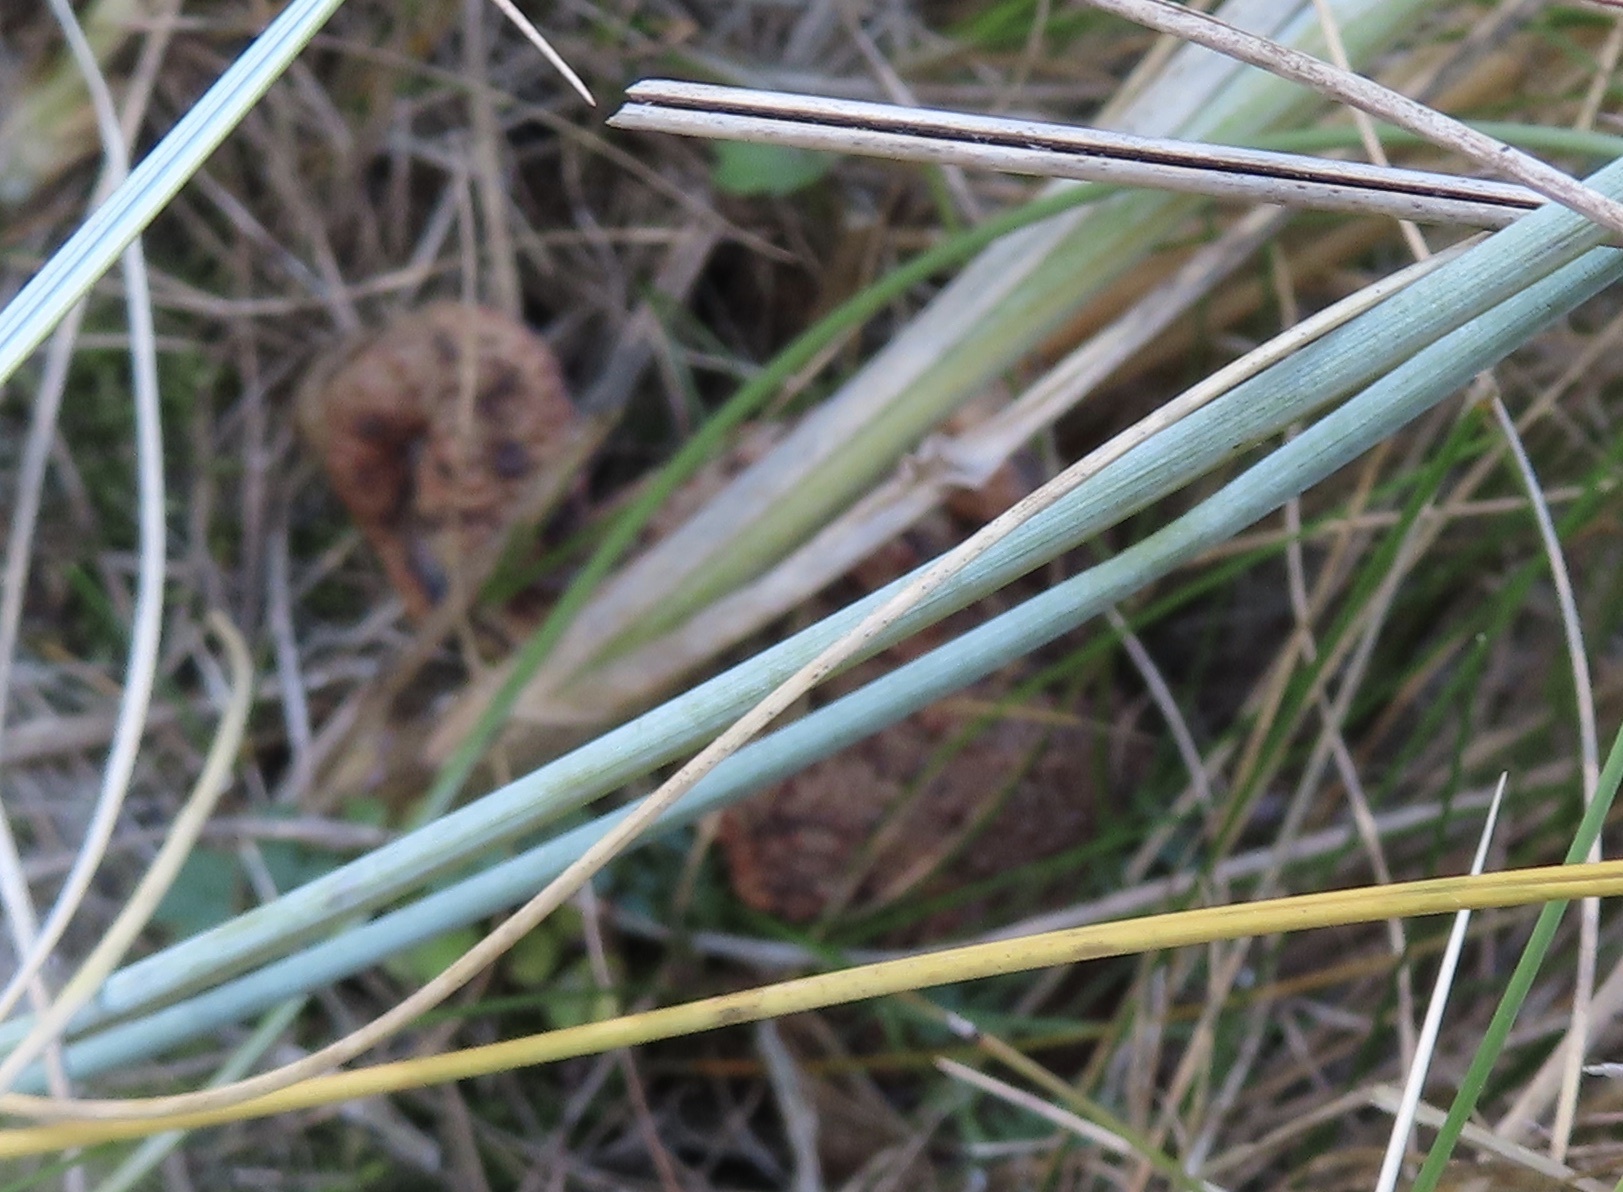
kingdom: Animalia
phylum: Chordata
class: Amphibia
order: Anura
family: Bufonidae
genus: Bufo
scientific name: Bufo bufo
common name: Common toad
